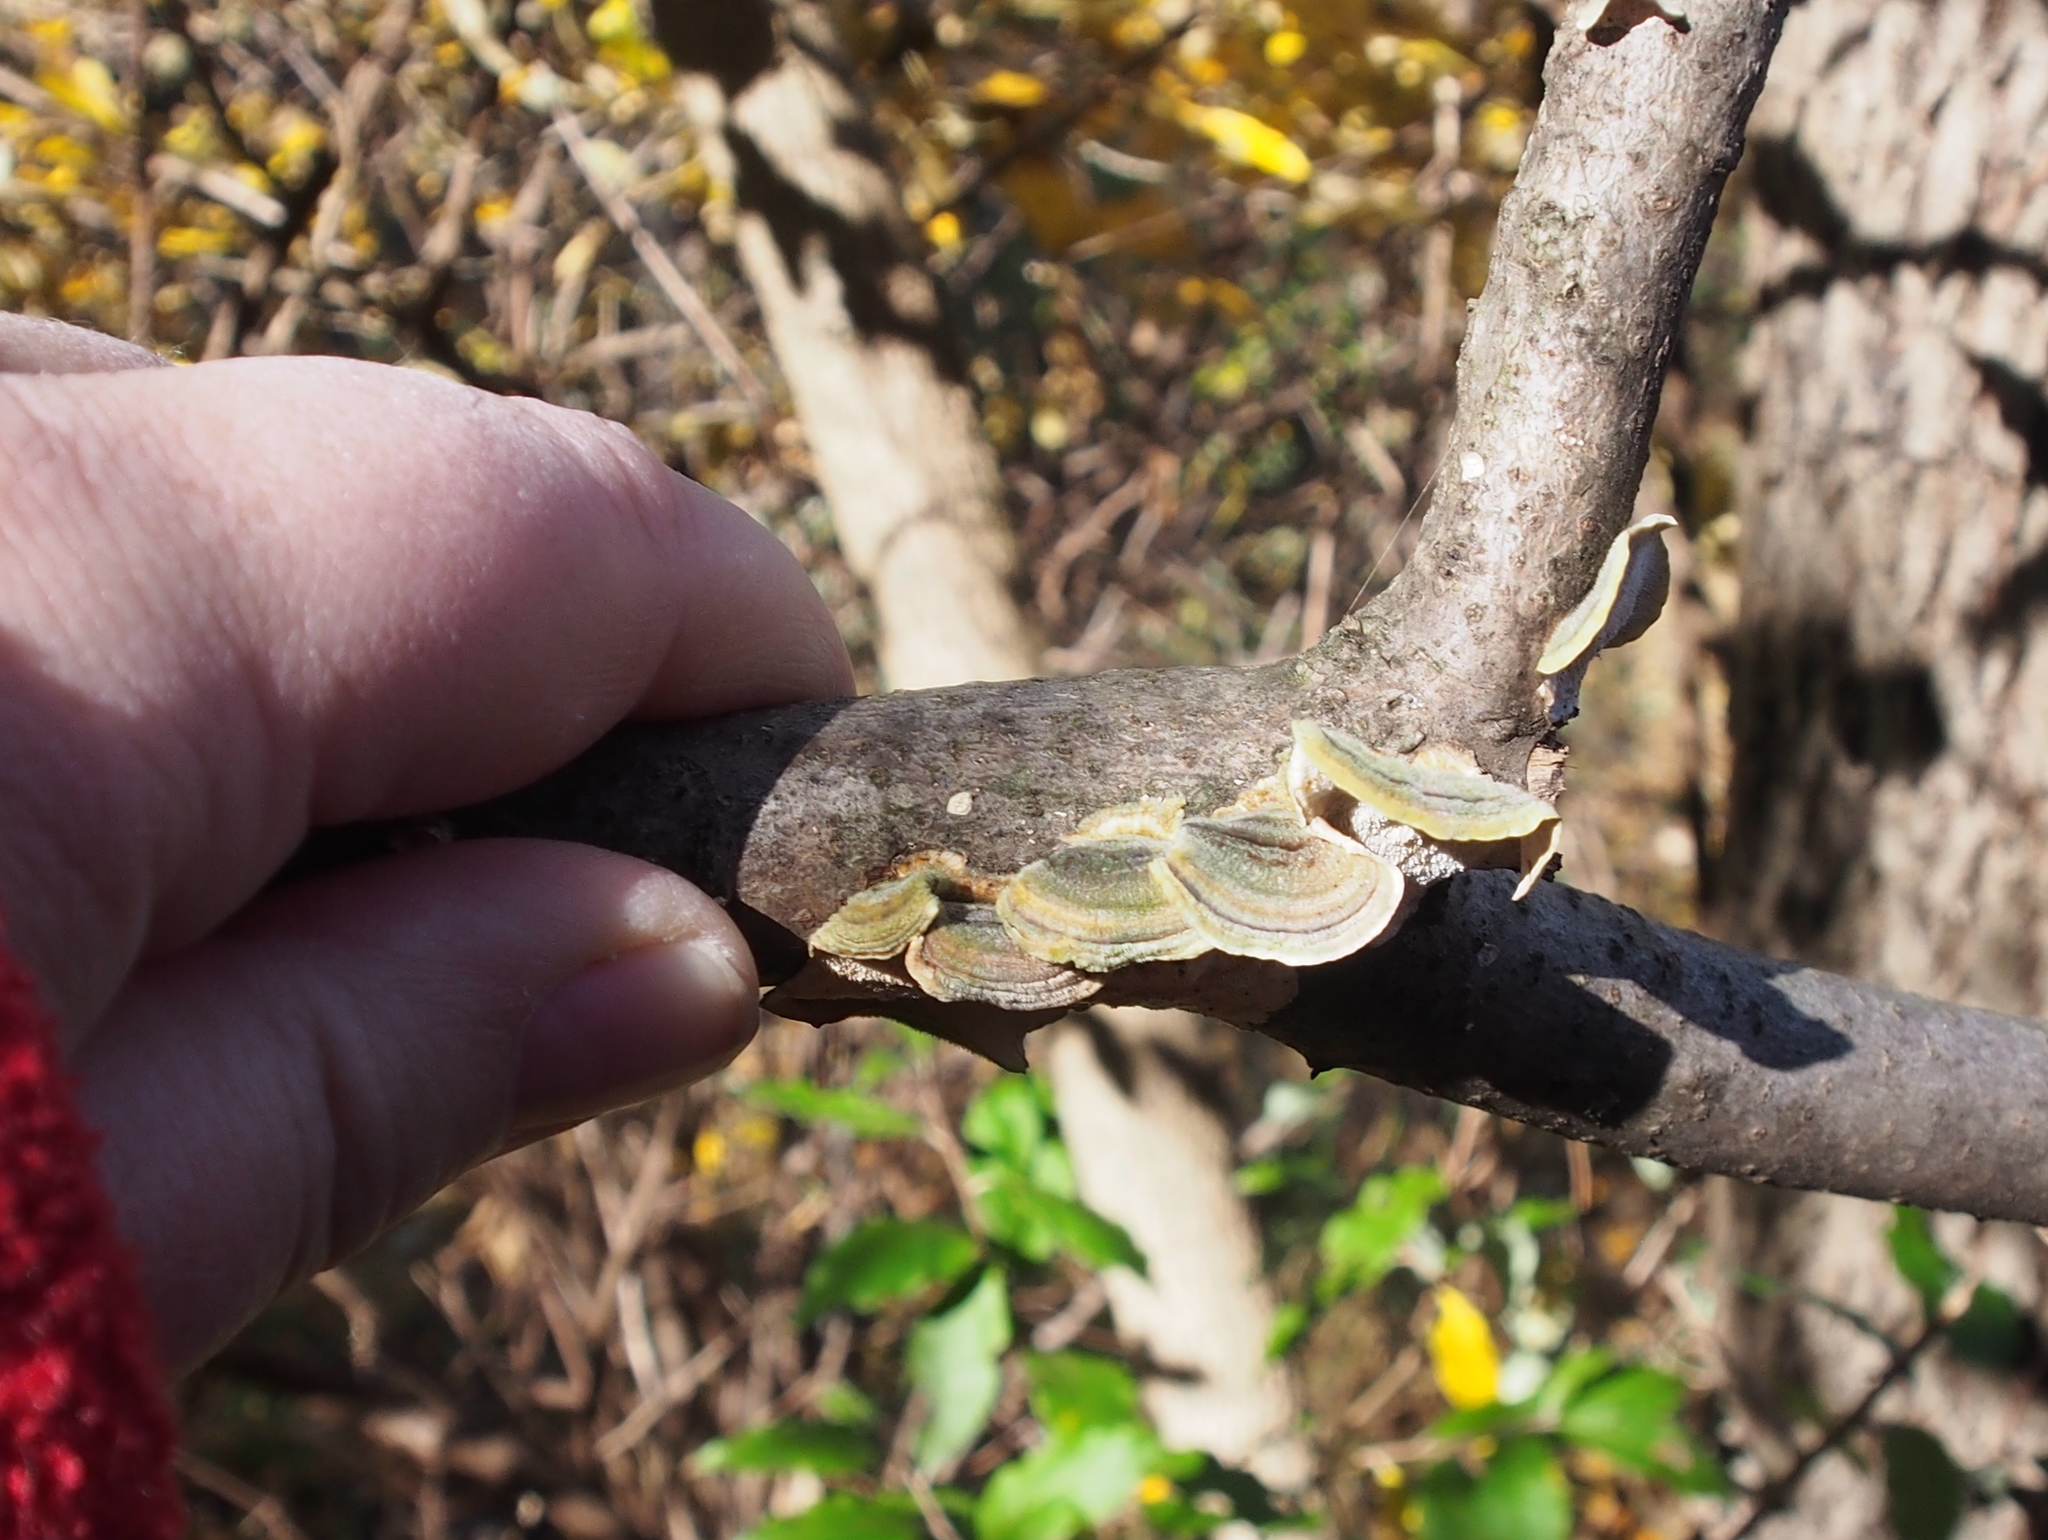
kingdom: Fungi
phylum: Basidiomycota
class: Agaricomycetes
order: Polyporales
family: Polyporaceae
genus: Trametes
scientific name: Trametes versicolor
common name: Turkeytail
